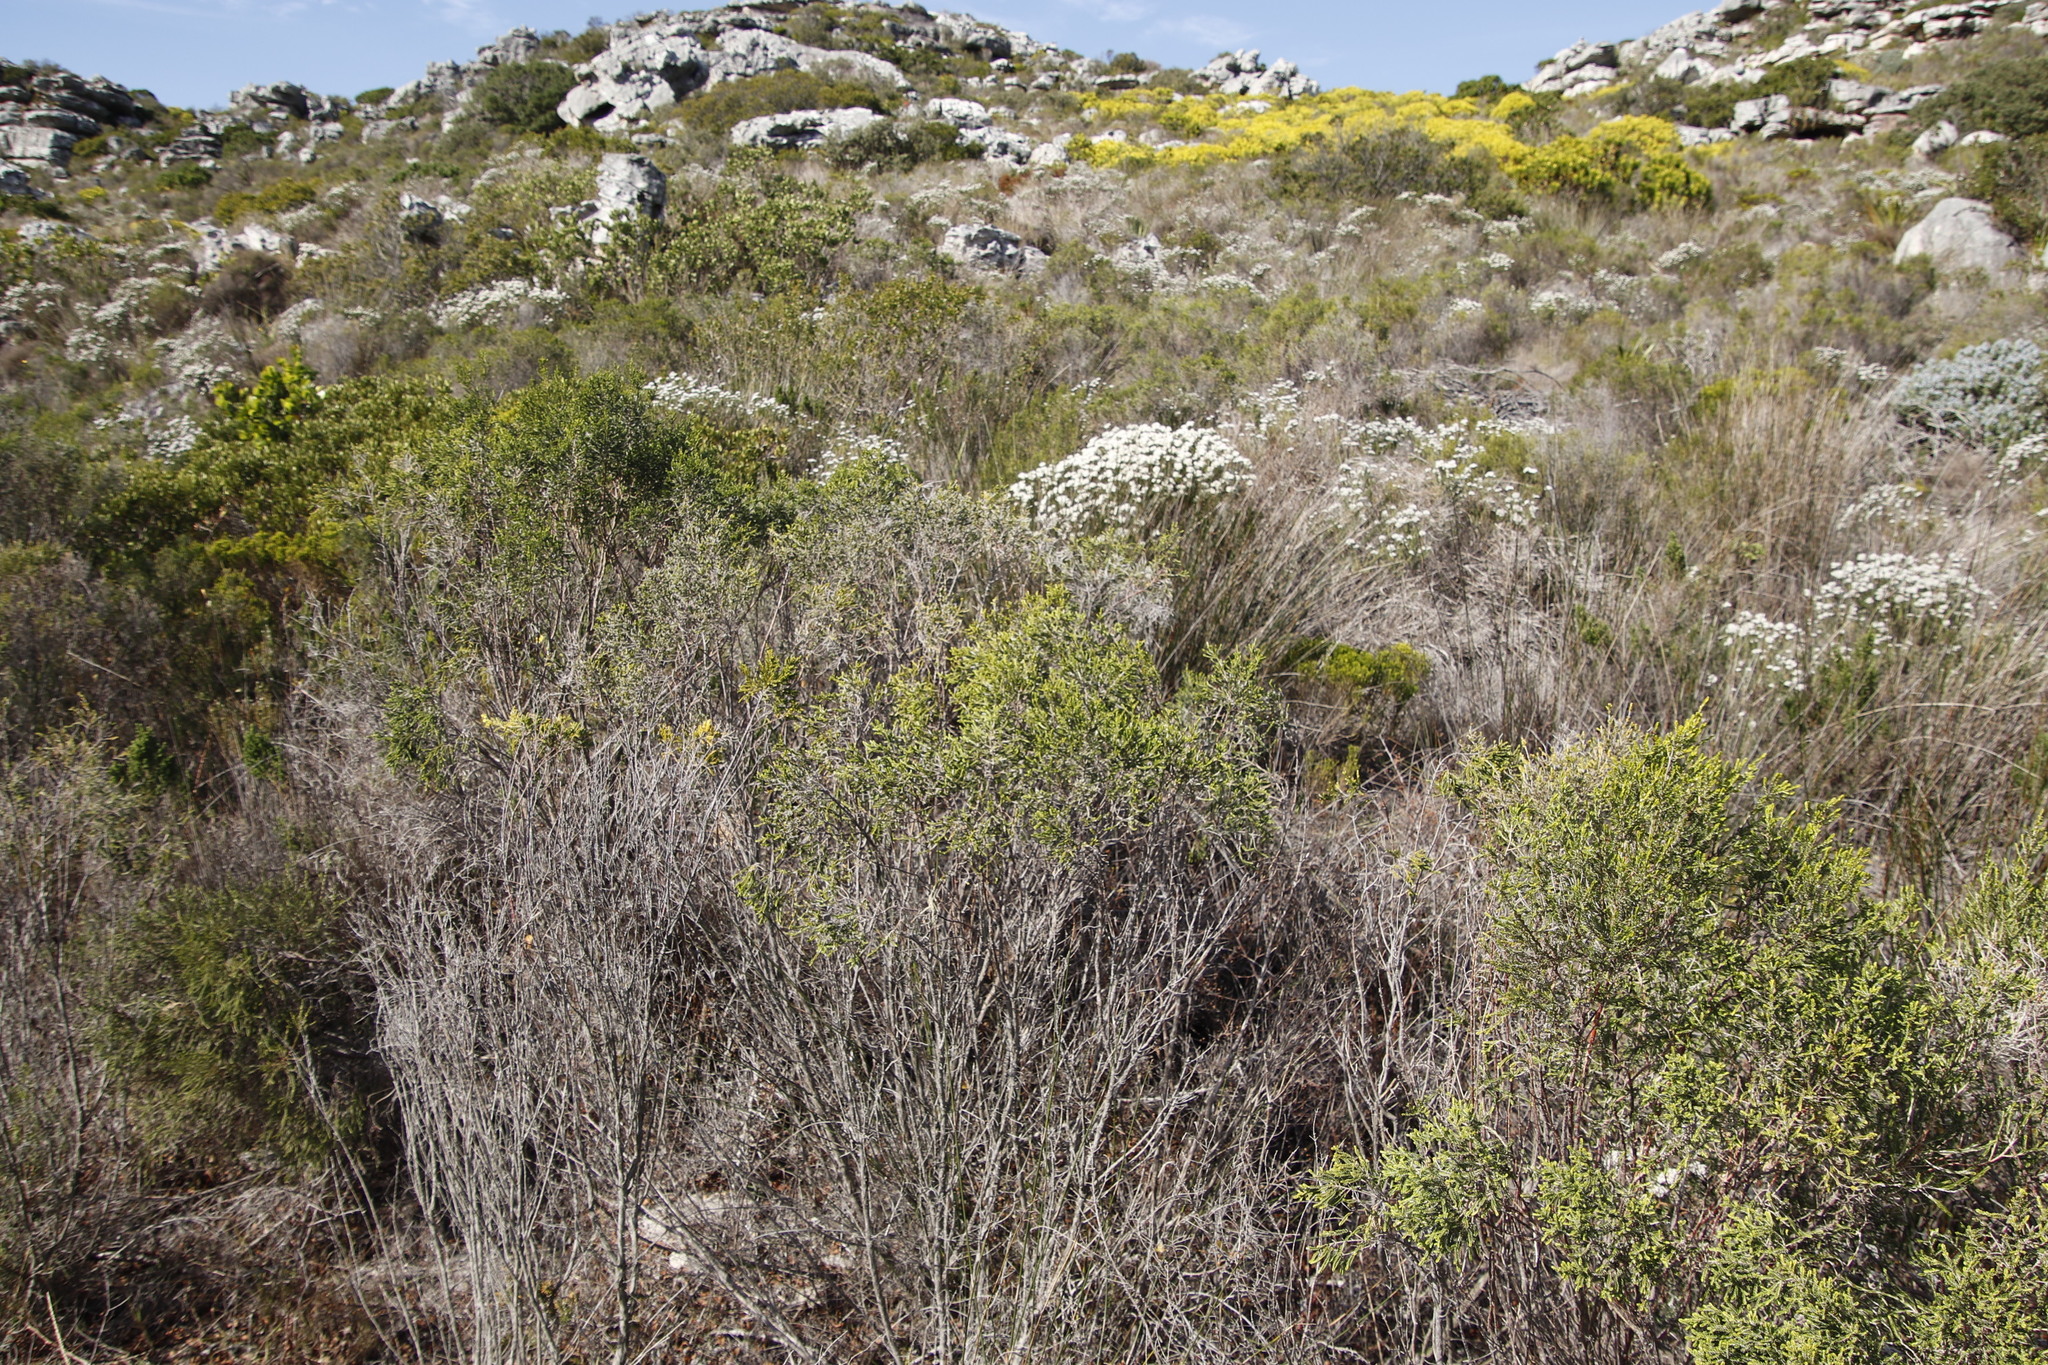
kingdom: Plantae
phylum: Tracheophyta
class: Magnoliopsida
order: Malvales
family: Thymelaeaceae
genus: Passerina
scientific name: Passerina corymbosa
